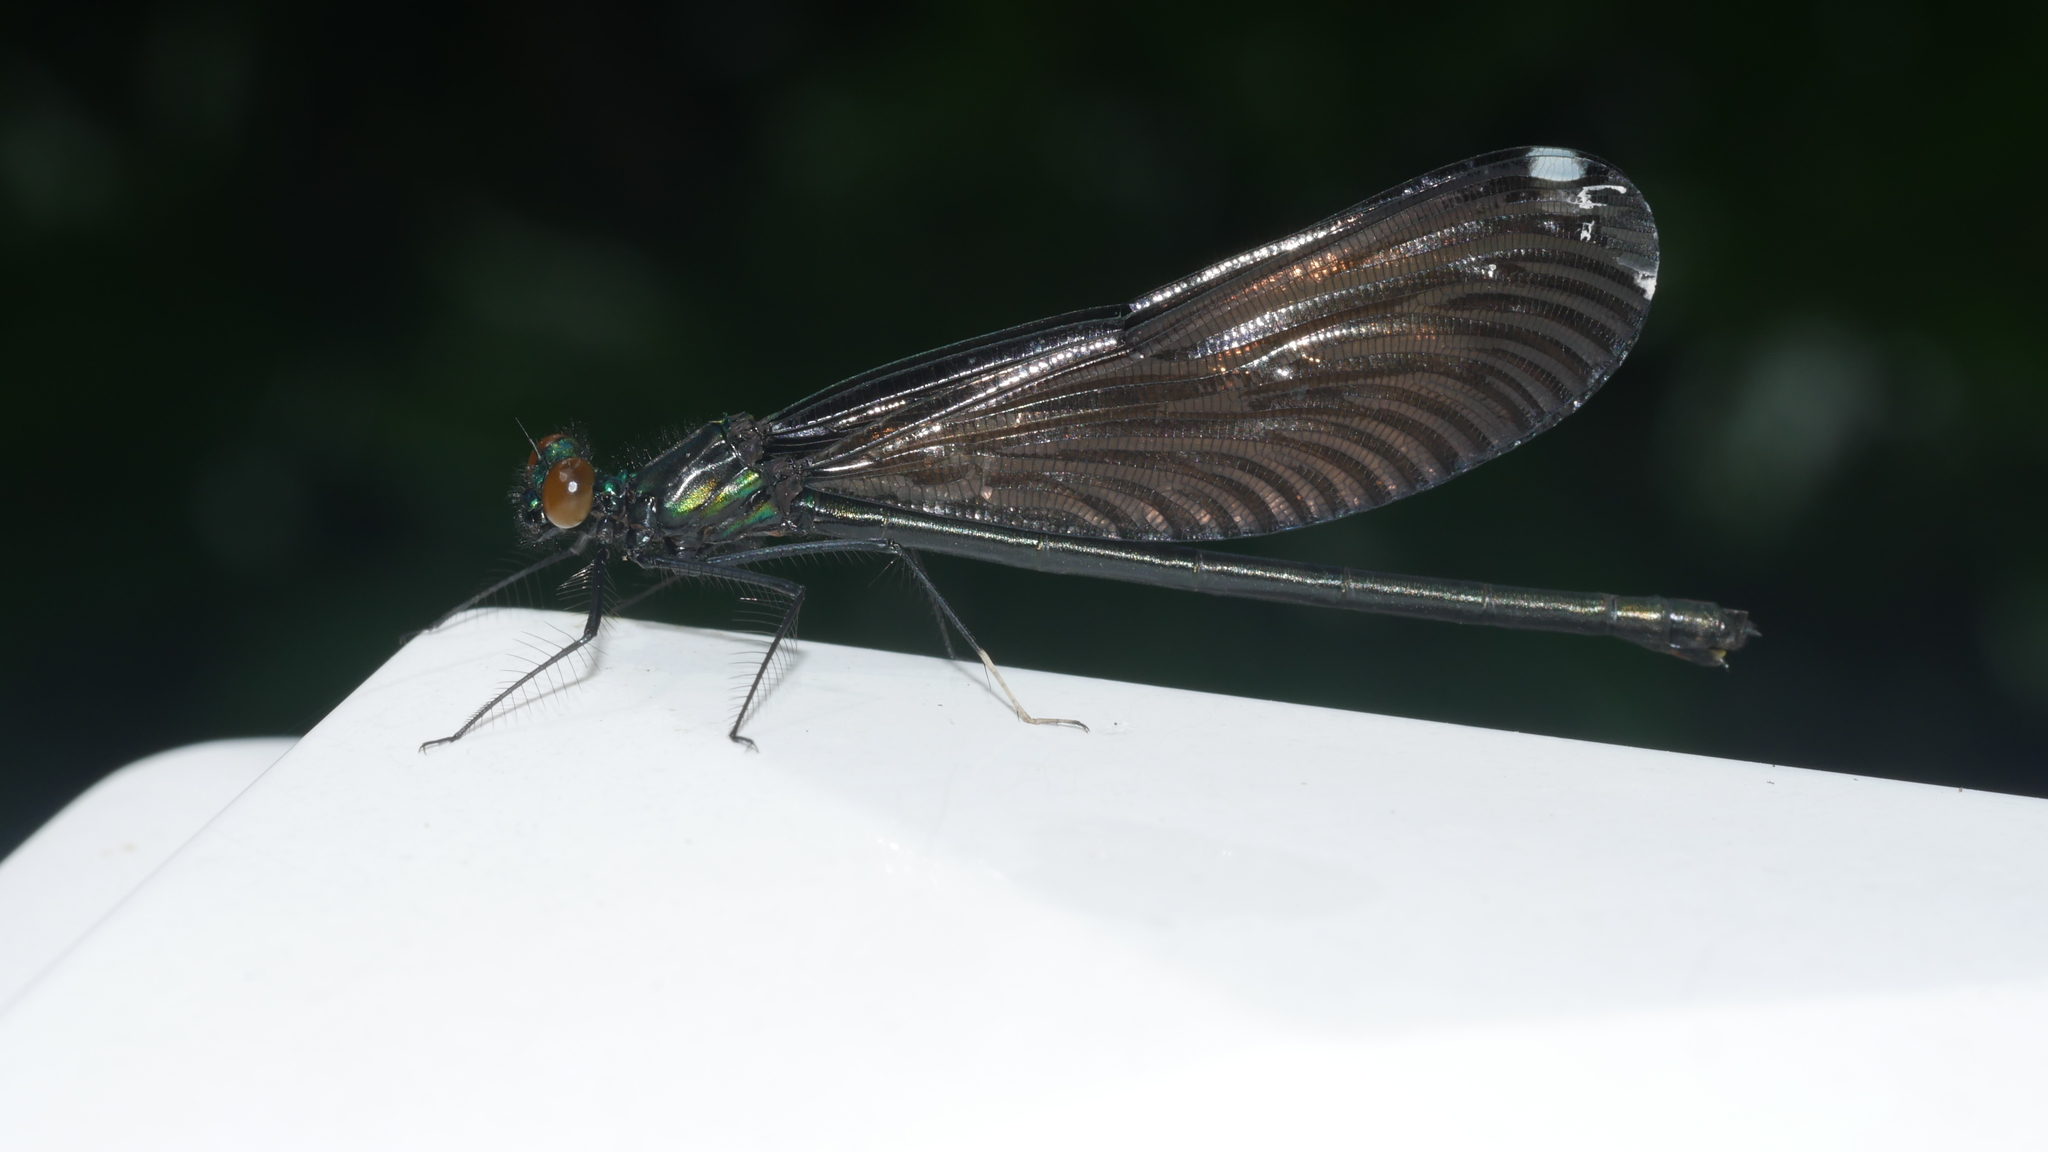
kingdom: Animalia
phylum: Arthropoda
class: Insecta
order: Odonata
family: Calopterygidae
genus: Calopteryx
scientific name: Calopteryx maculata
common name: Ebony jewelwing
